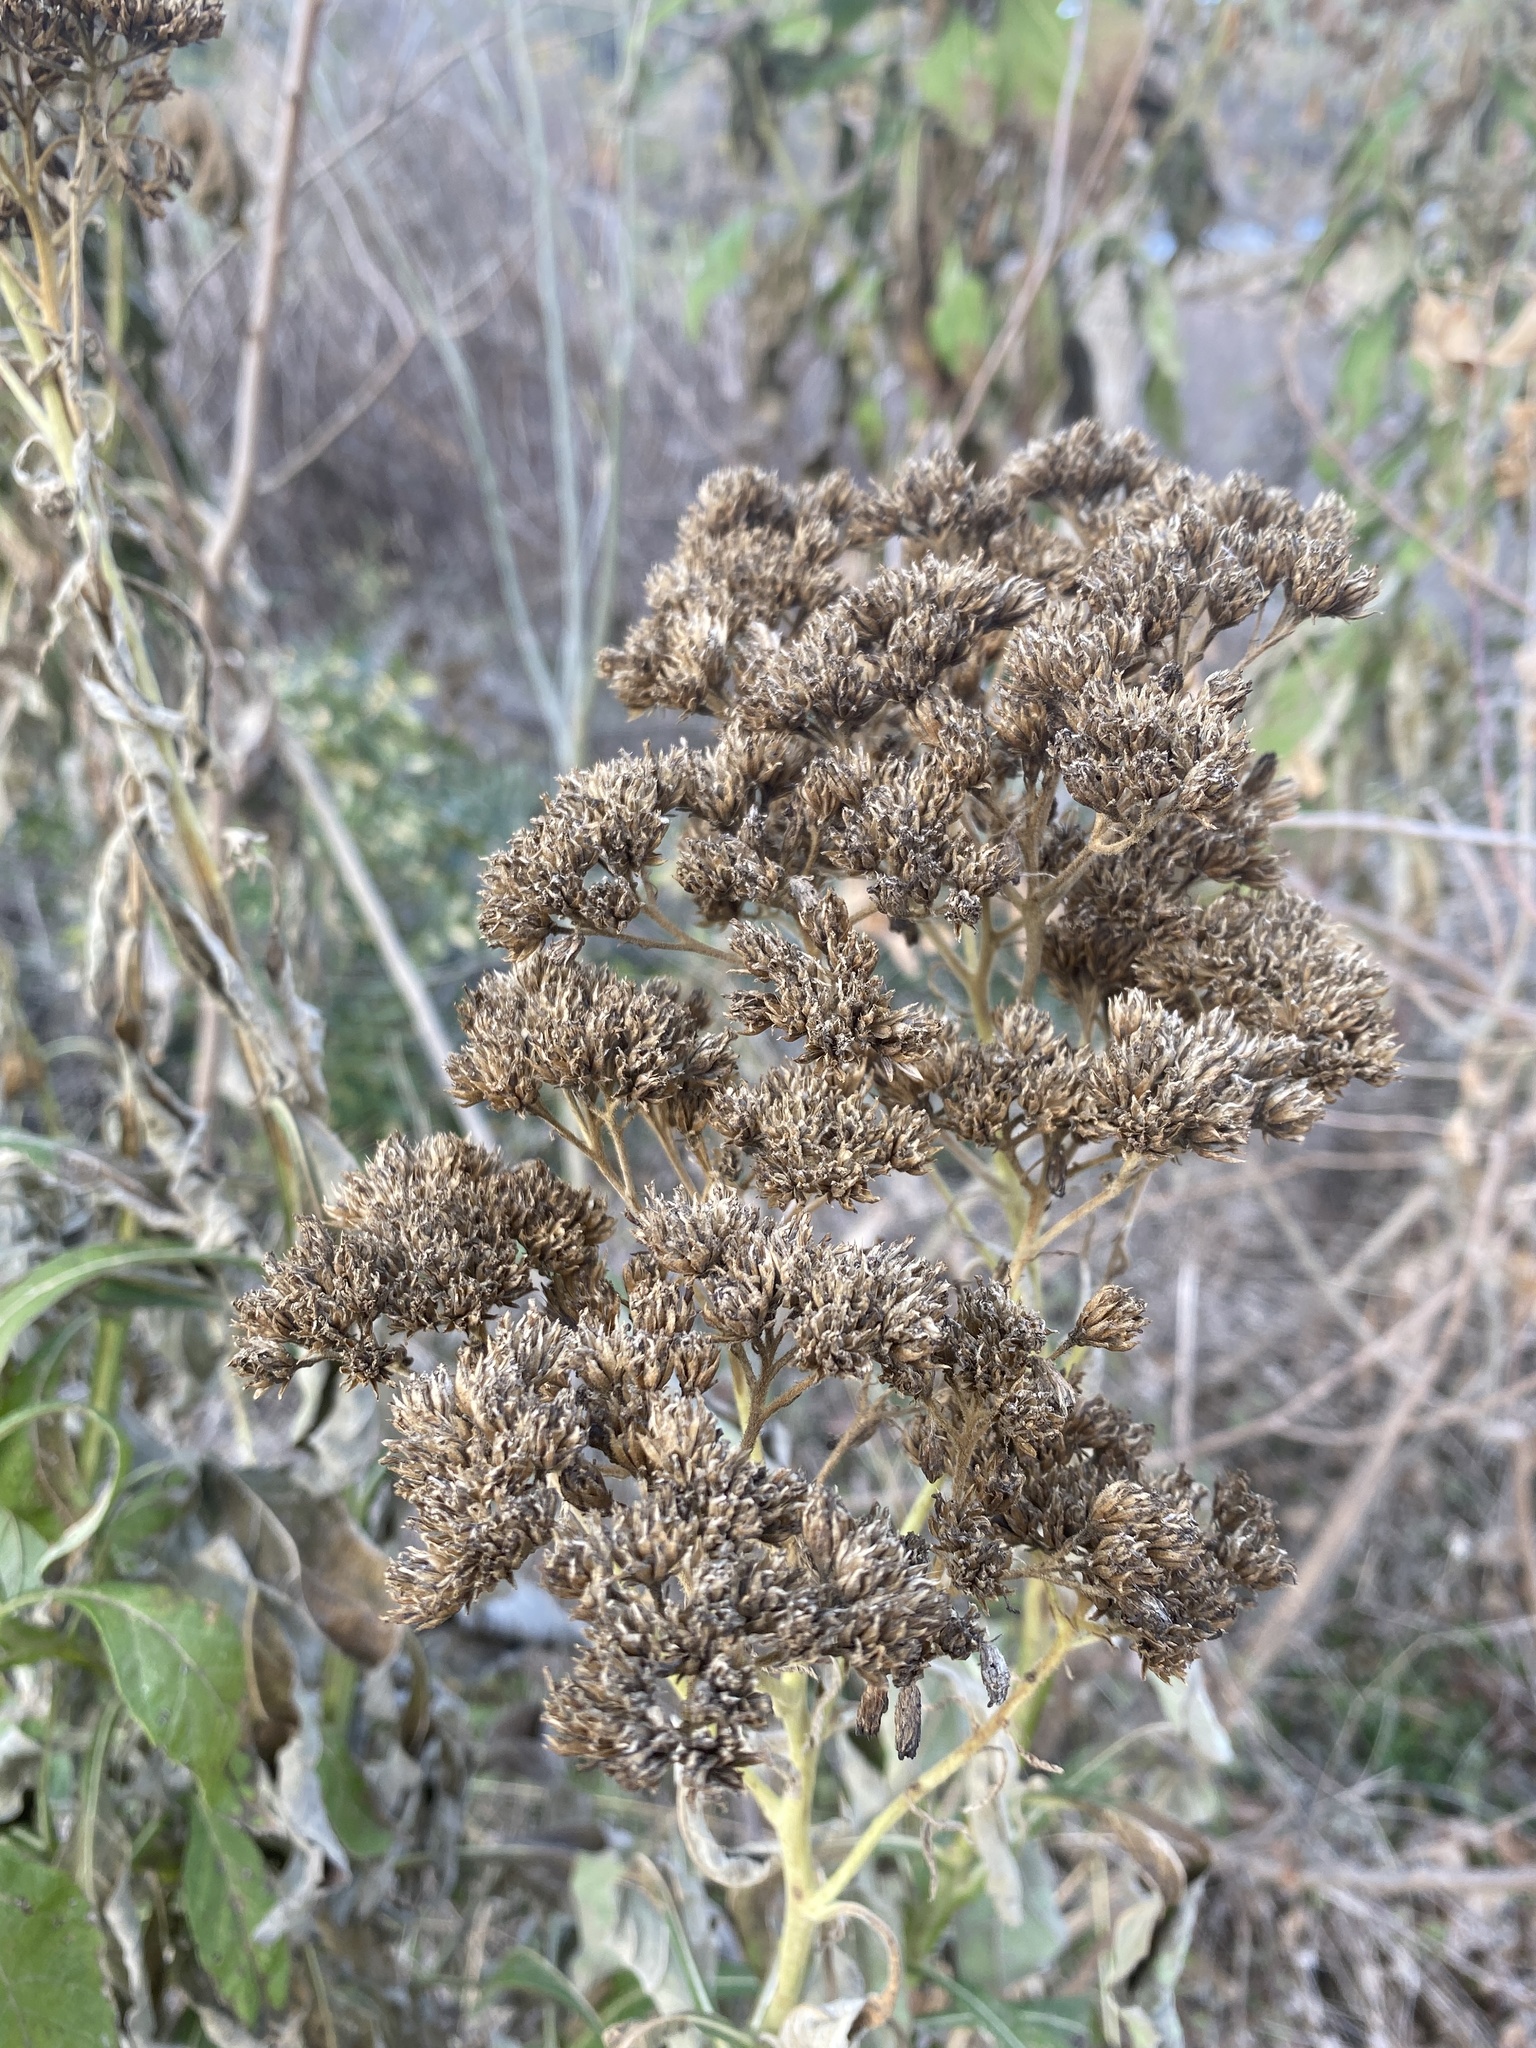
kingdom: Plantae
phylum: Tracheophyta
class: Magnoliopsida
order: Asterales
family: Asteraceae
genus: Verbesina
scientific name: Verbesina virginica
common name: Frostweed
